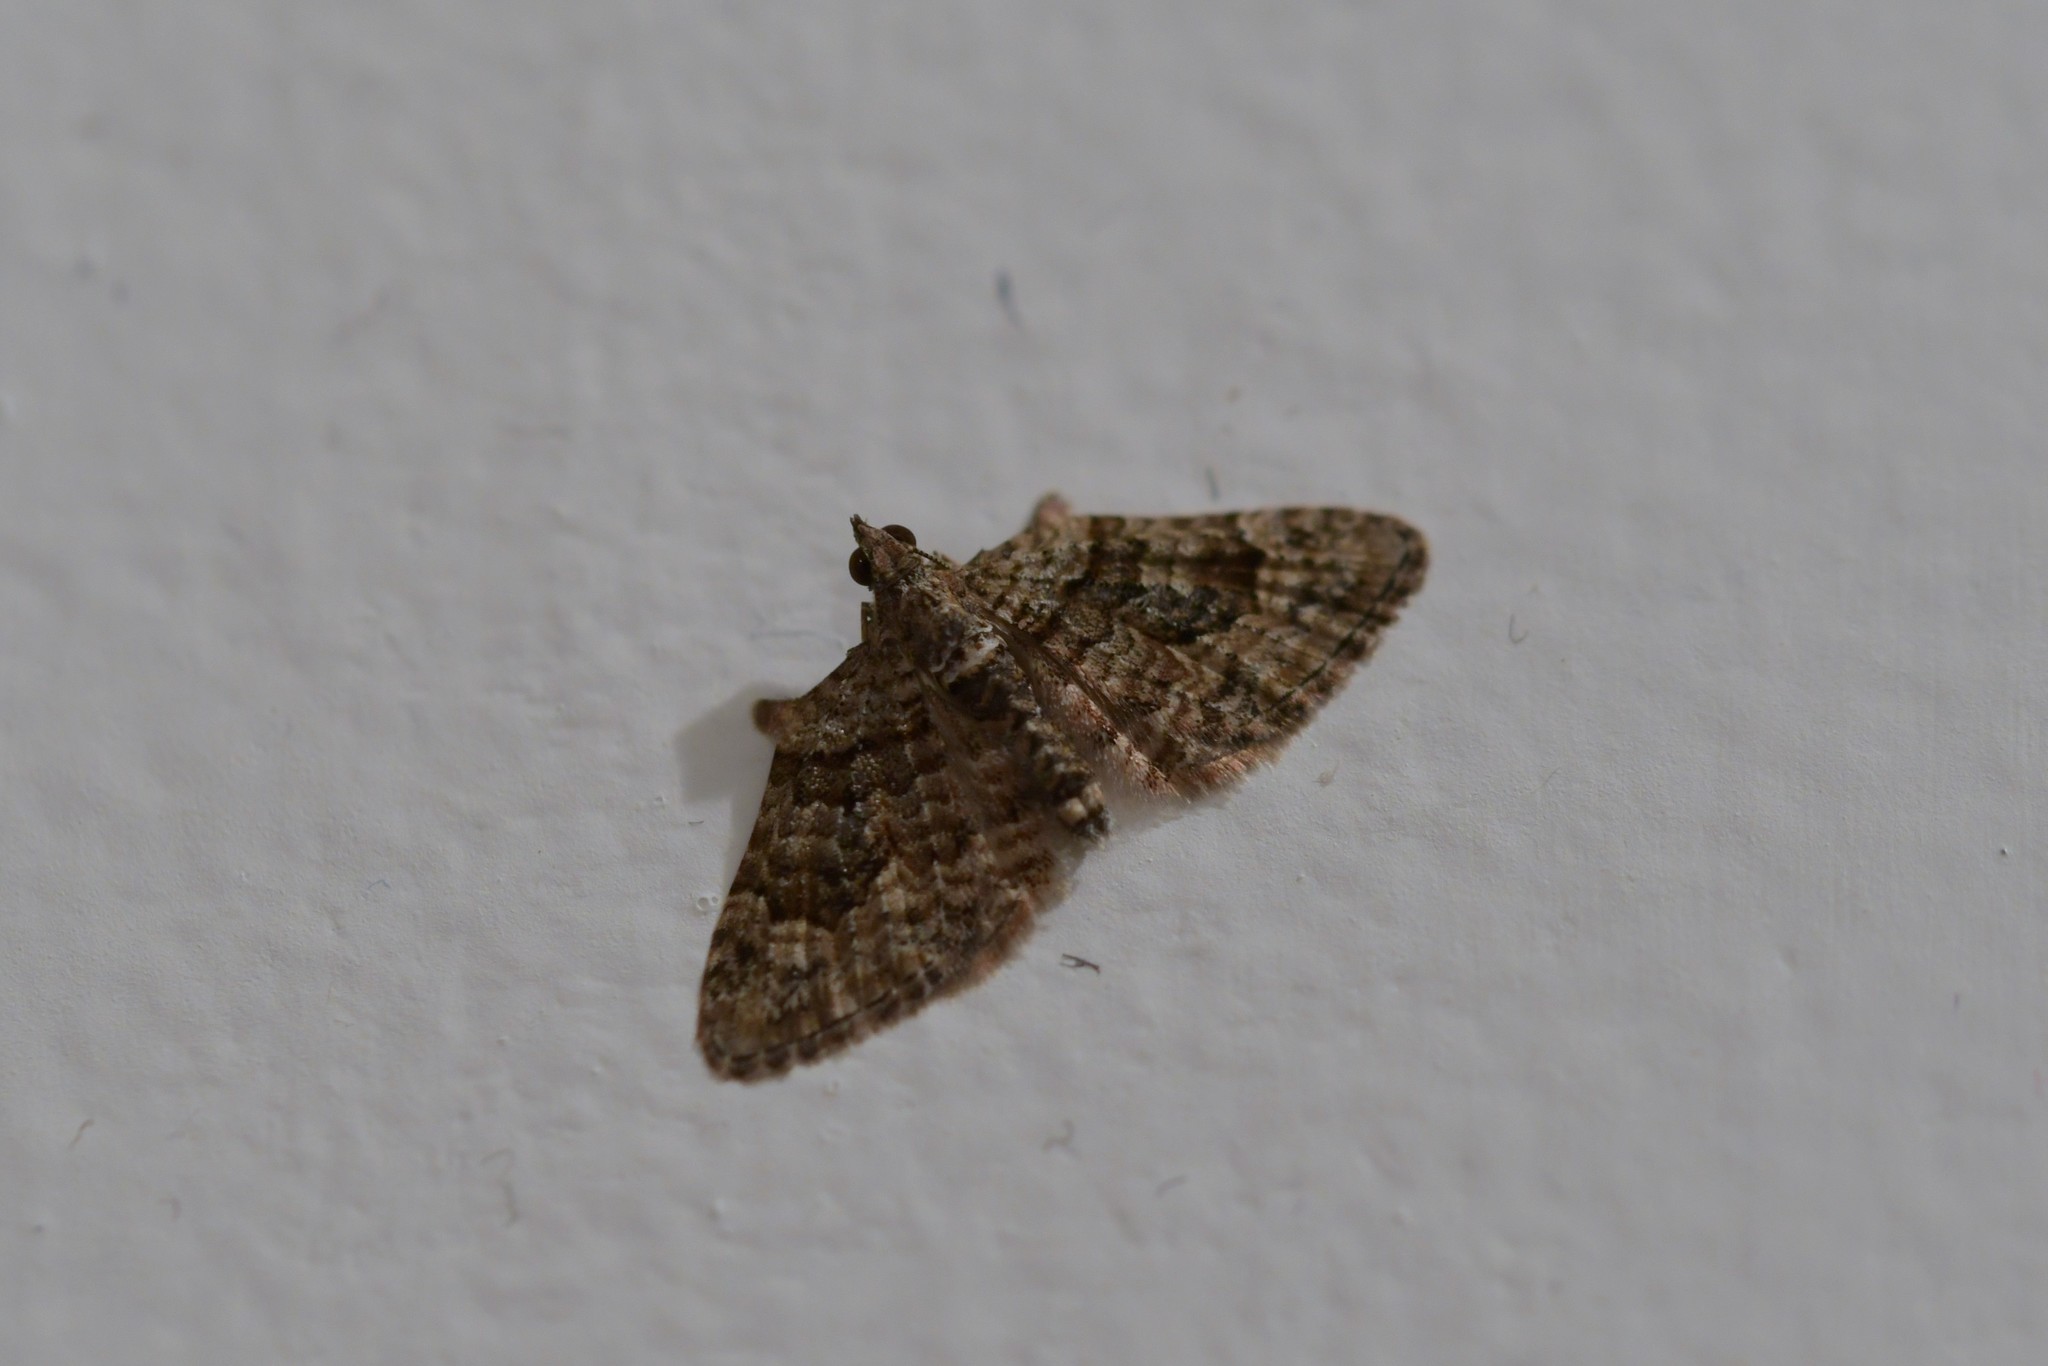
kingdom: Animalia
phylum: Arthropoda
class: Insecta
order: Lepidoptera
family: Geometridae
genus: Phrissogonus
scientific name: Phrissogonus laticostata
